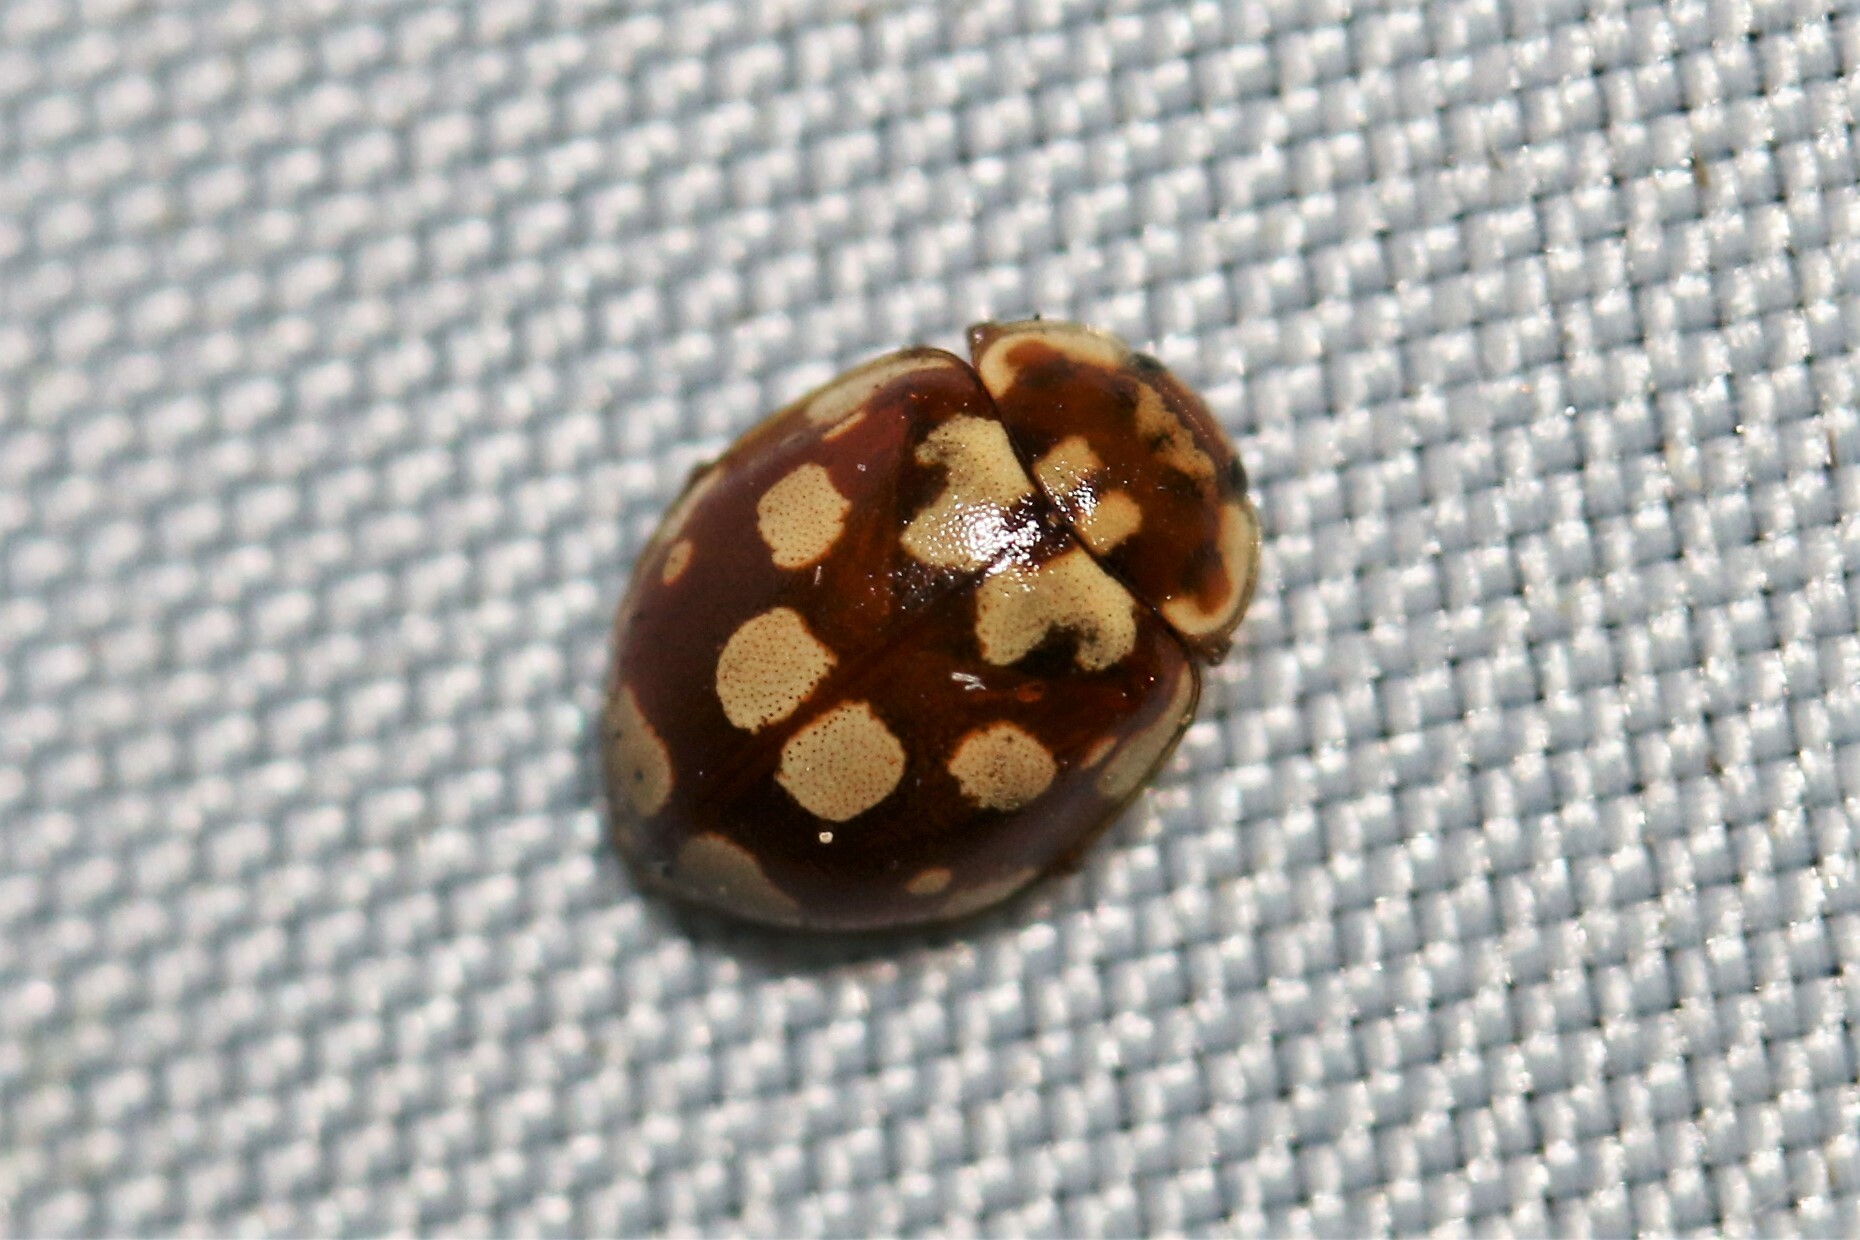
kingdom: Animalia
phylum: Arthropoda
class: Insecta
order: Coleoptera
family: Coccinellidae
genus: Myrrha
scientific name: Myrrha octodecimguttata
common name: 18-spot ladybird
